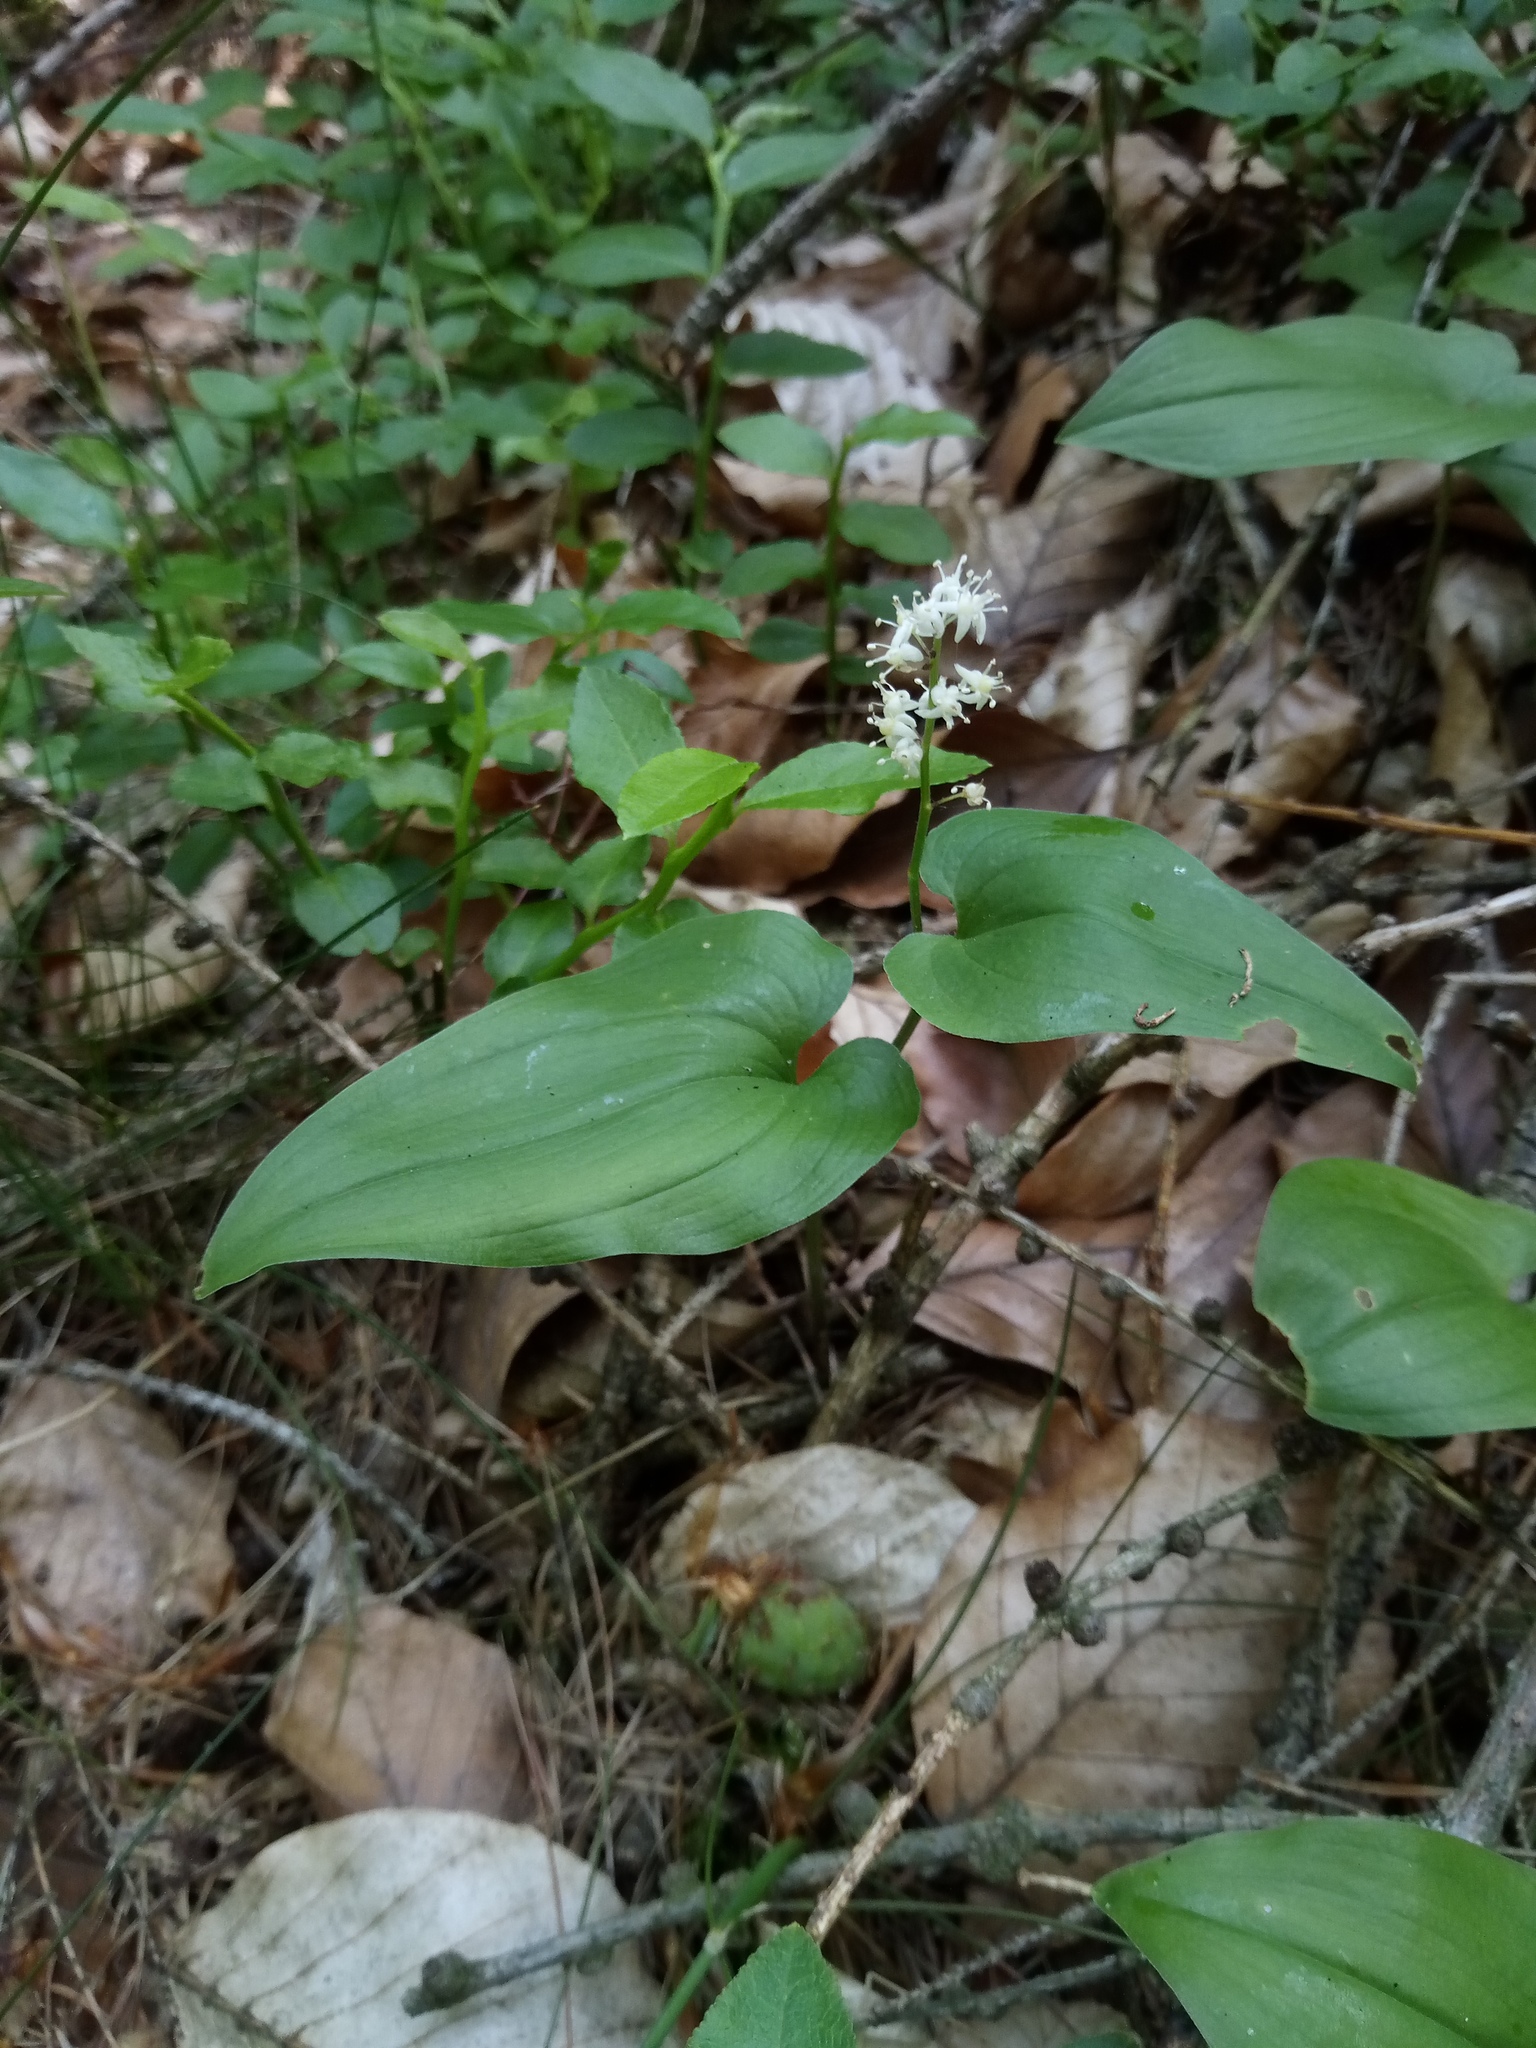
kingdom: Plantae
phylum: Tracheophyta
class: Liliopsida
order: Asparagales
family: Asparagaceae
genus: Maianthemum
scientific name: Maianthemum bifolium
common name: May lily
